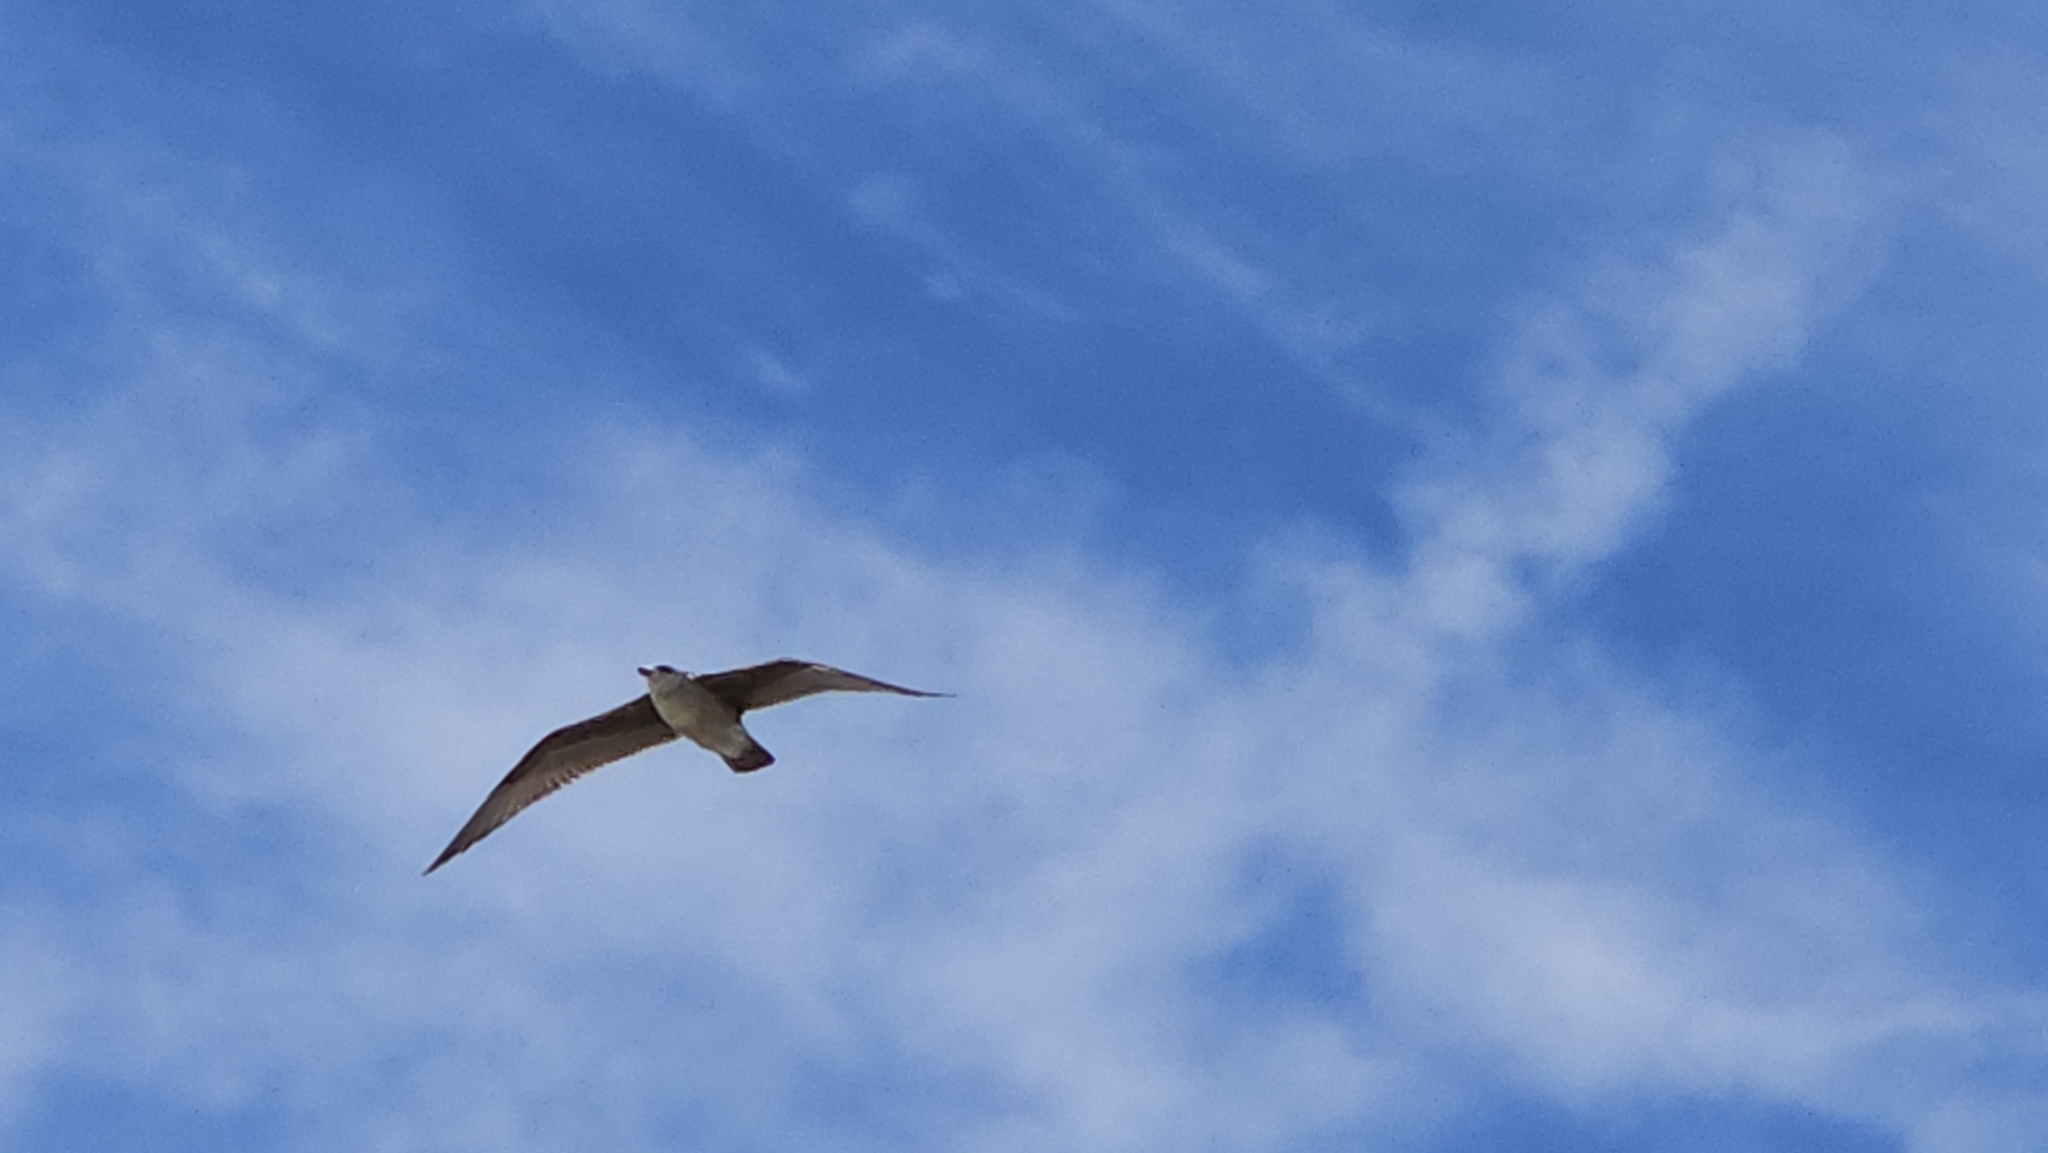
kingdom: Animalia
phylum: Chordata
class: Aves
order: Charadriiformes
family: Laridae
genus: Larus
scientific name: Larus
